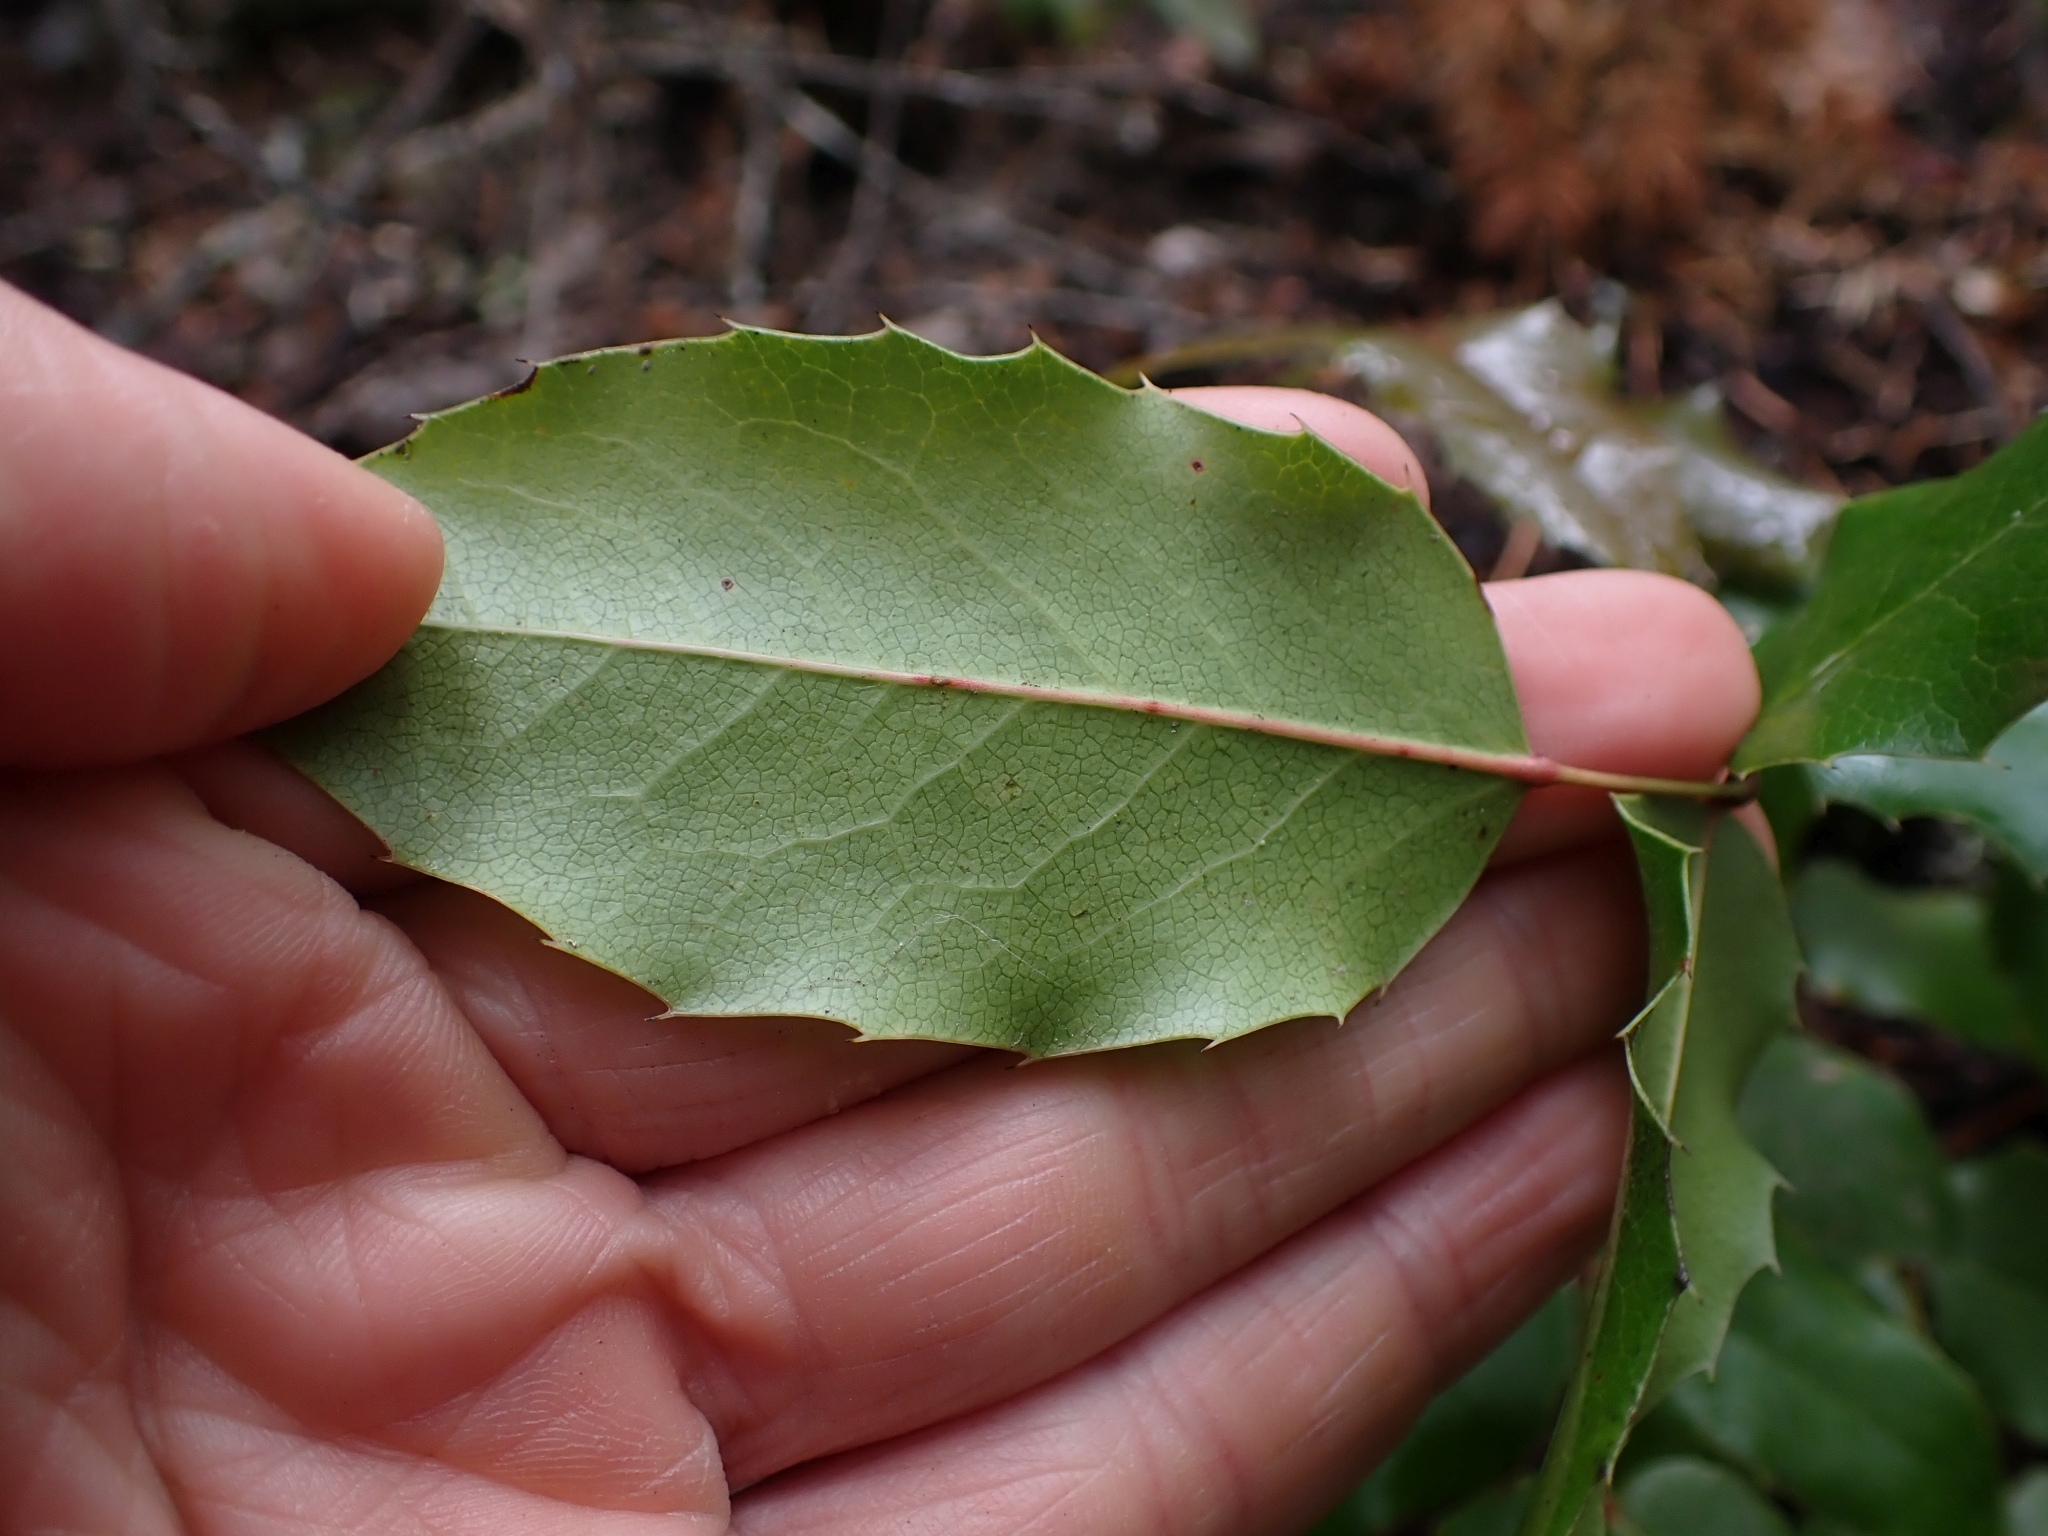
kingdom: Plantae
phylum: Tracheophyta
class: Magnoliopsida
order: Ranunculales
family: Berberidaceae
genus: Mahonia
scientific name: Mahonia aquifolium
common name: Oregon-grape
